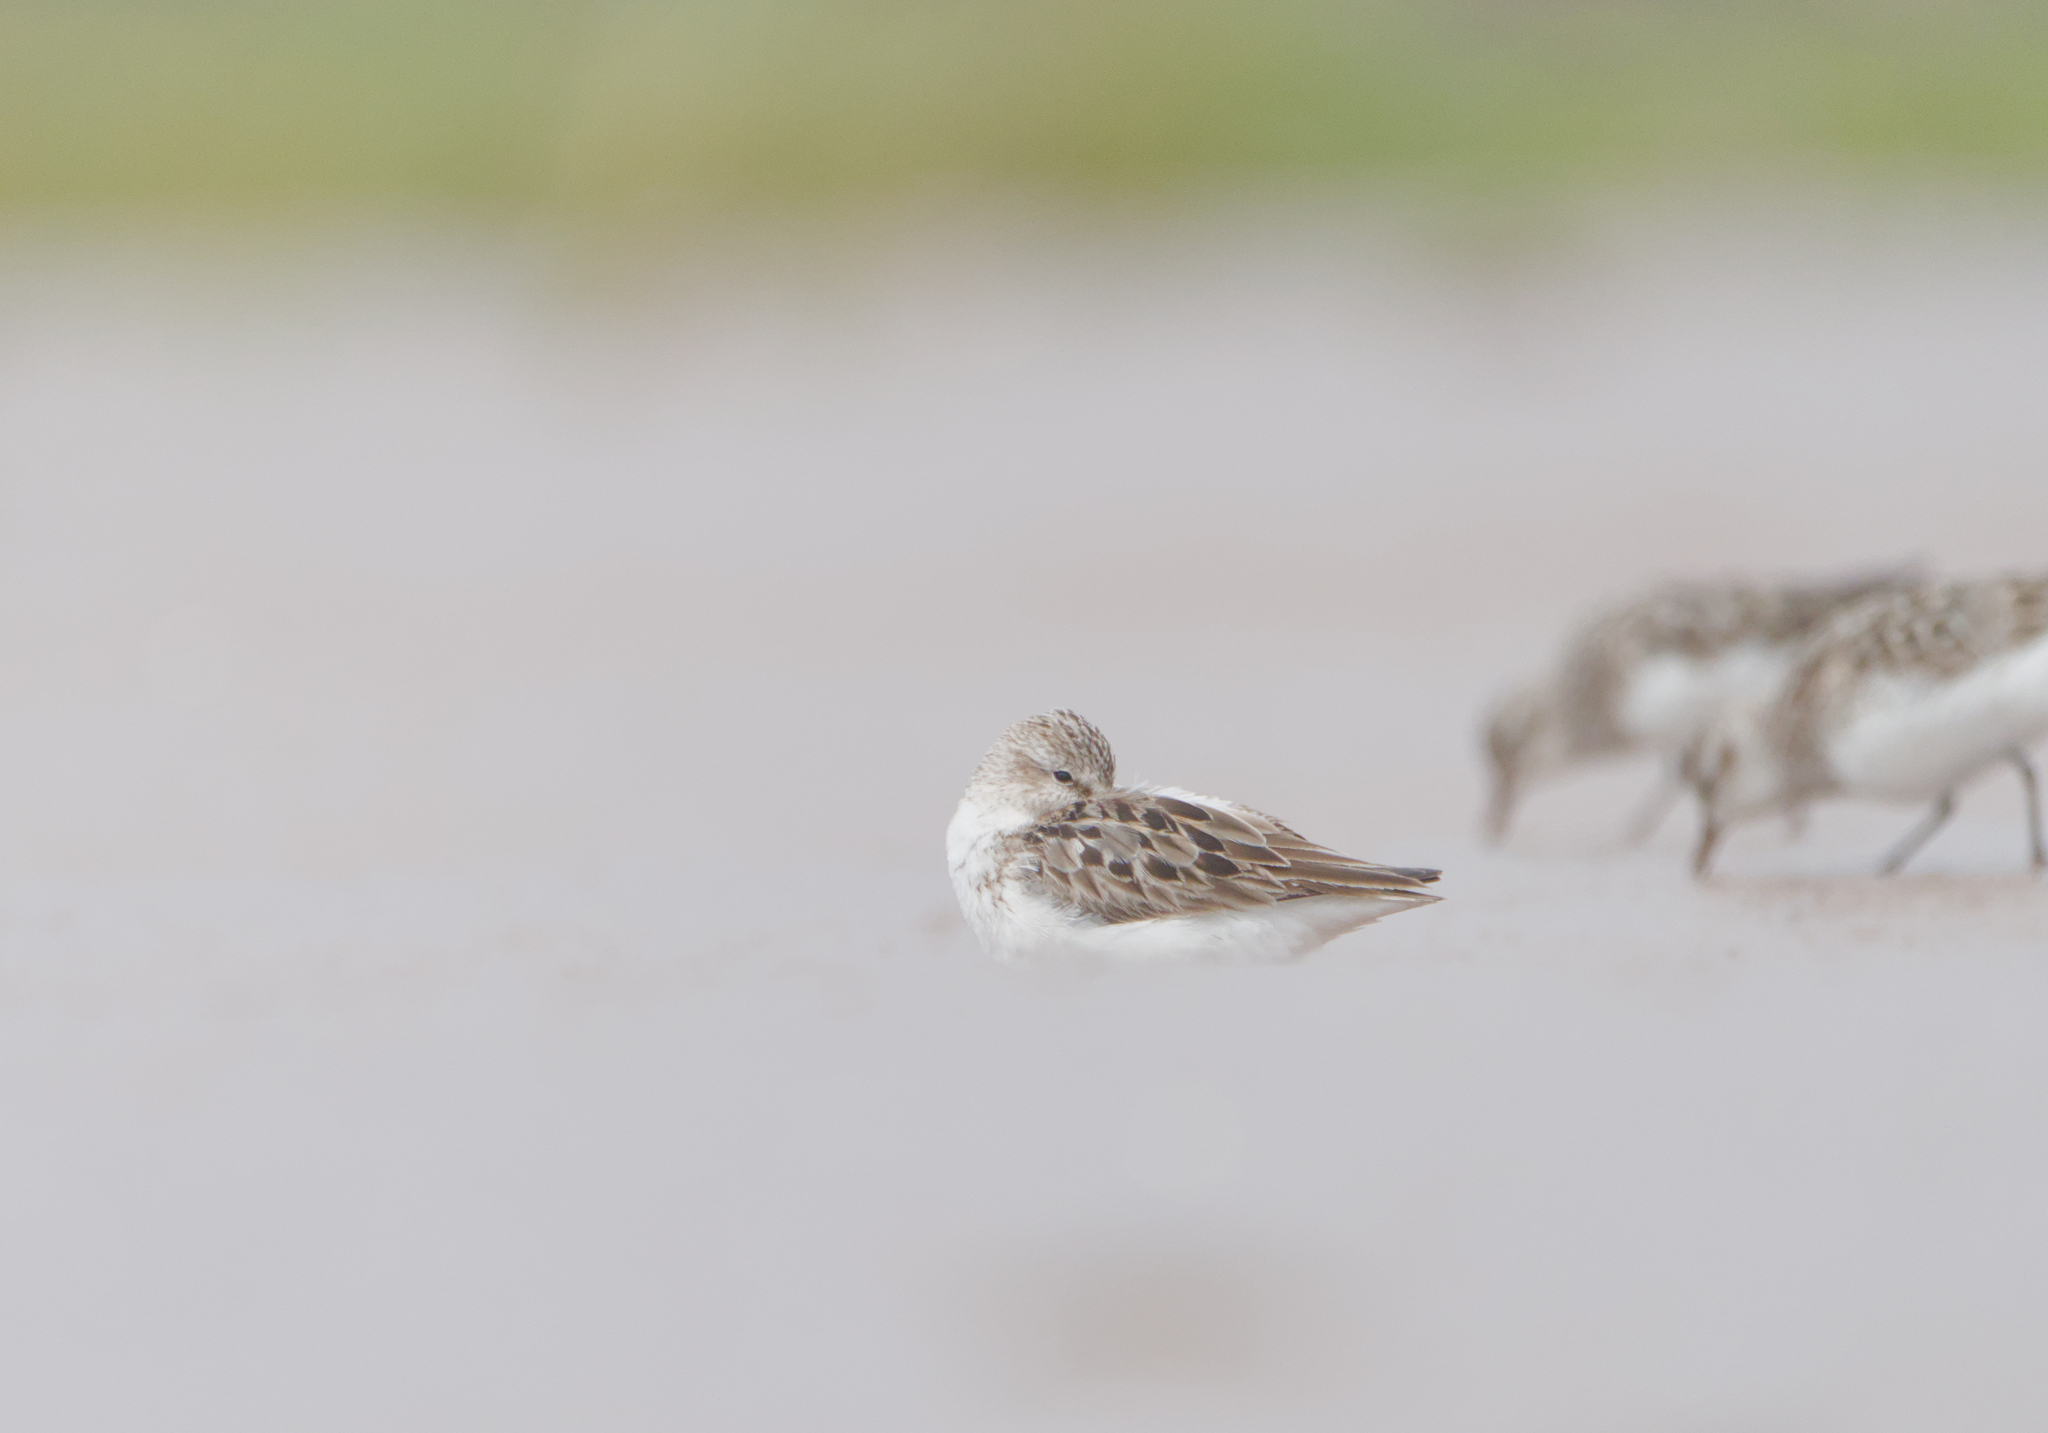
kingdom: Animalia
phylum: Chordata
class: Aves
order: Charadriiformes
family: Scolopacidae
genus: Calidris
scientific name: Calidris pusilla
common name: Semipalmated sandpiper
